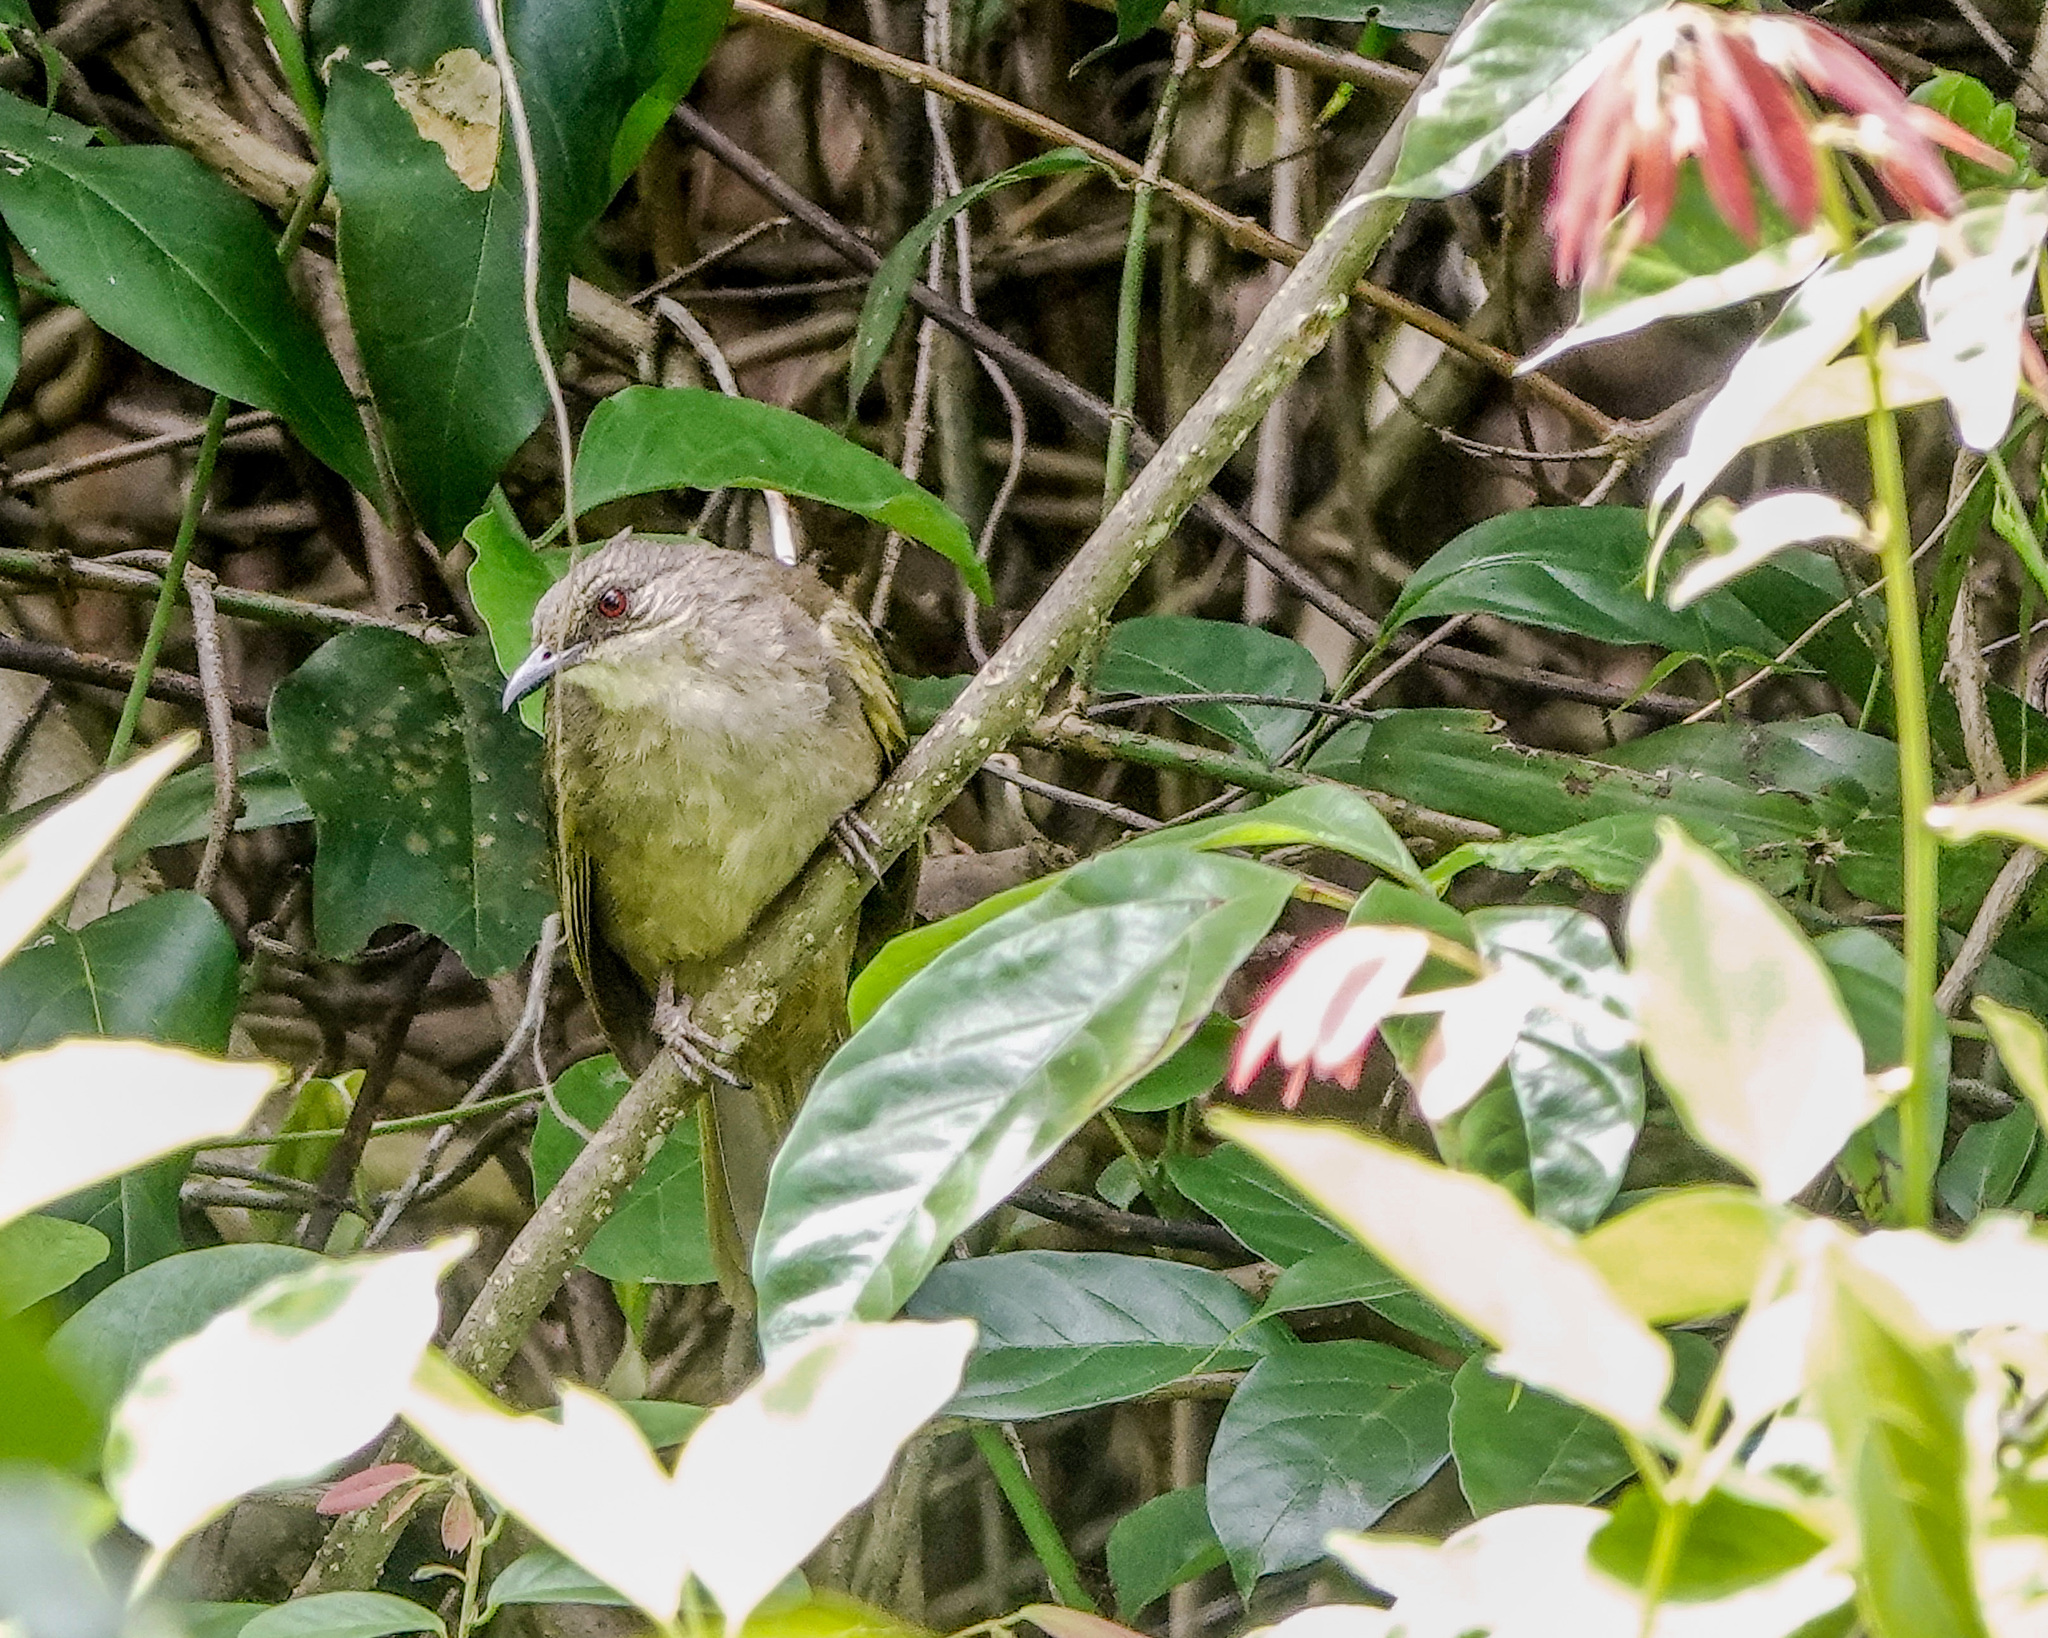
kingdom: Animalia
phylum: Chordata
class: Aves
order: Passeriformes
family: Pycnonotidae
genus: Pycnonotus
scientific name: Pycnonotus plumosus
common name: Olive-winged bulbul
